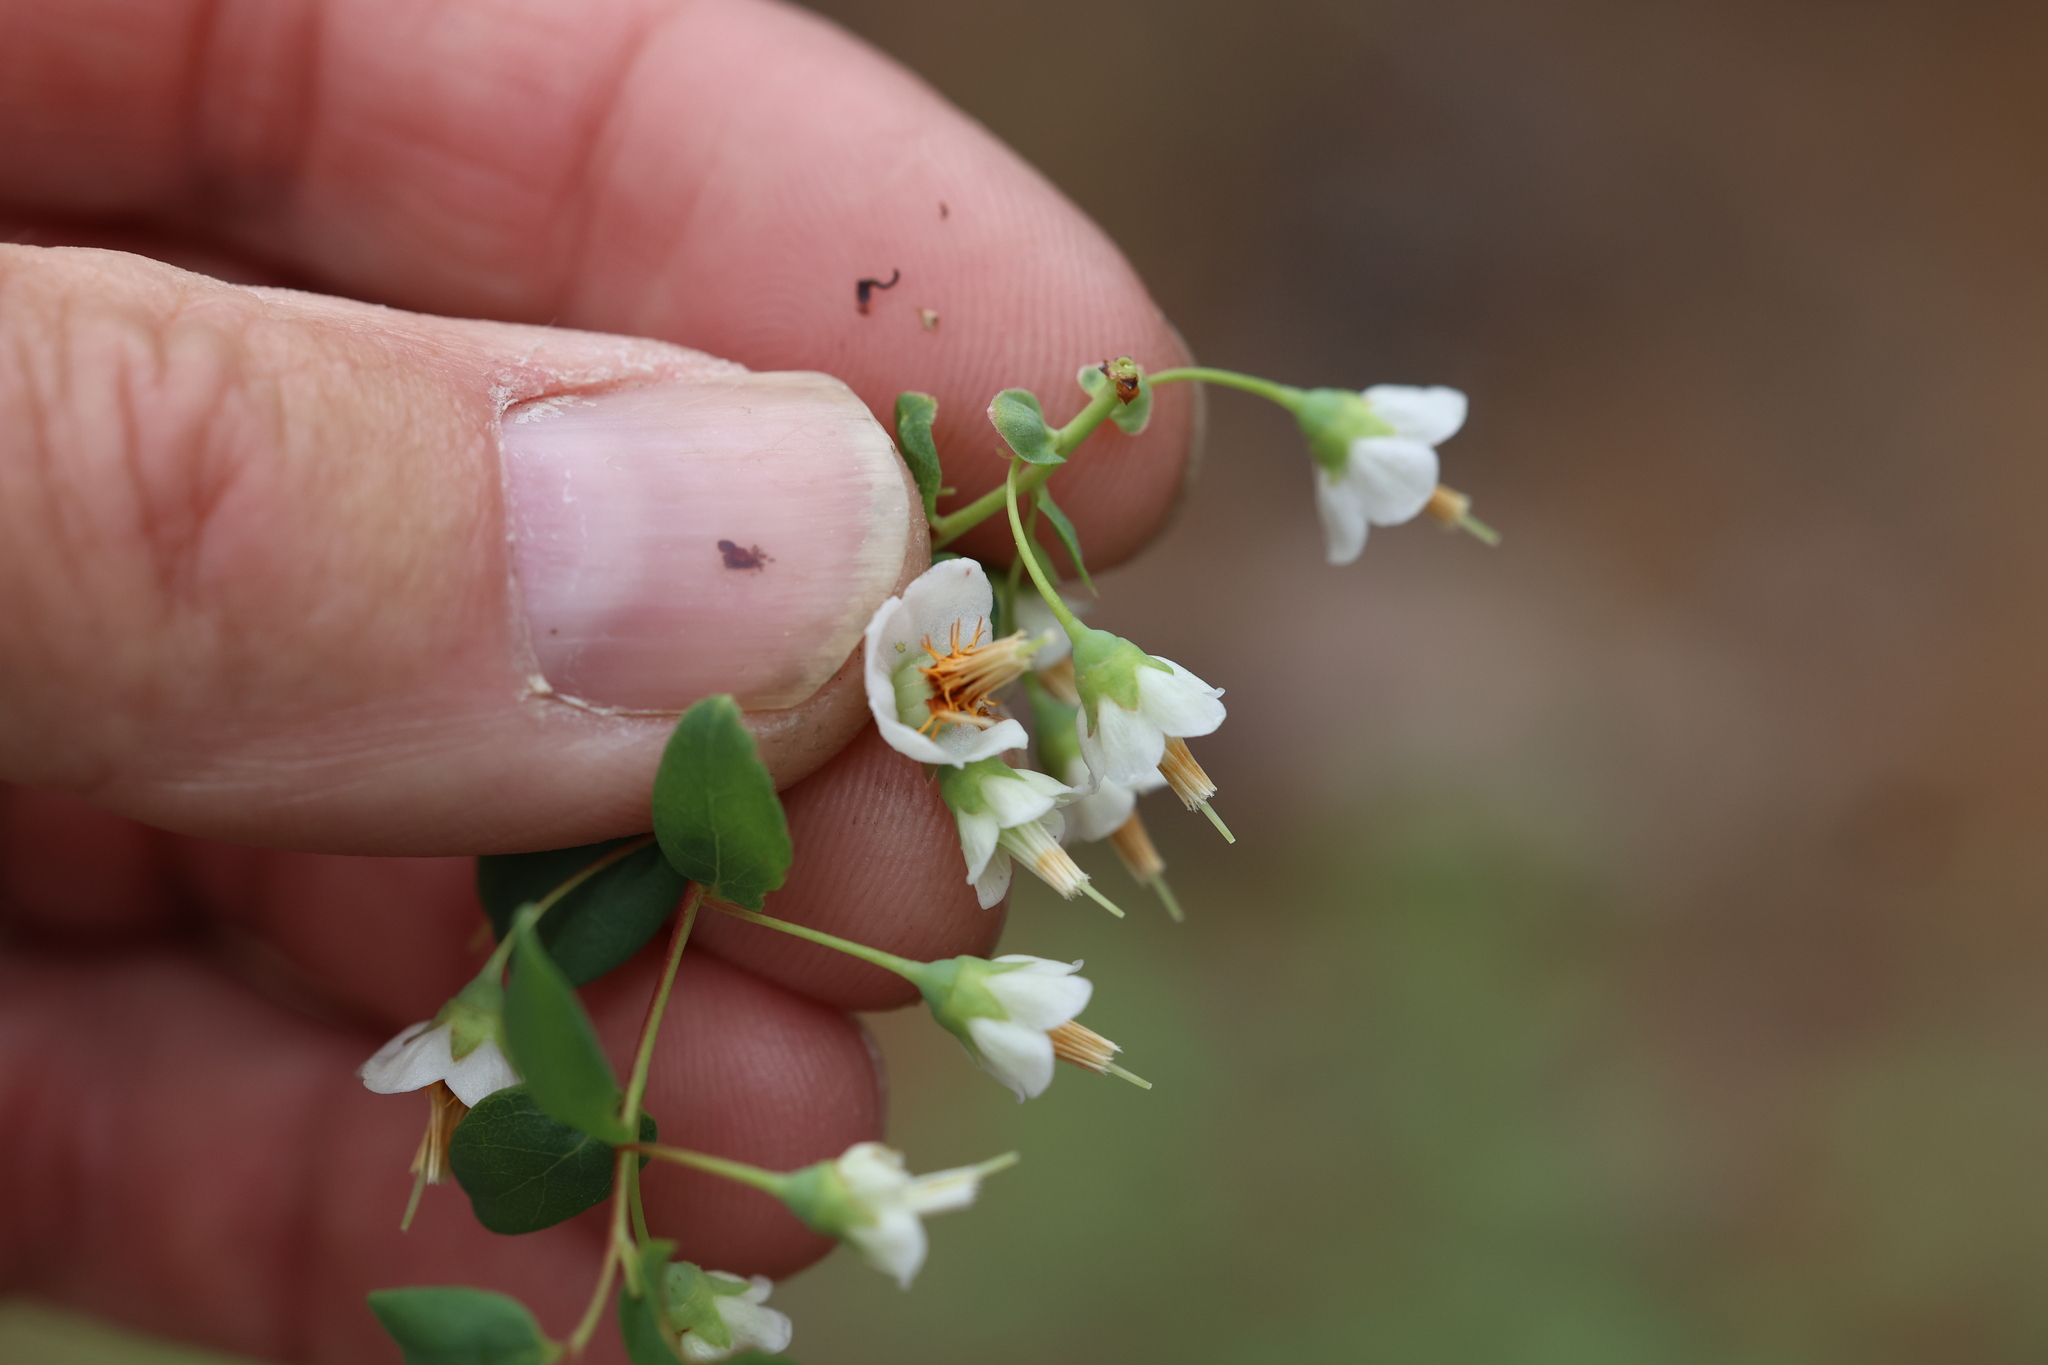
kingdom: Plantae
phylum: Tracheophyta
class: Magnoliopsida
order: Ericales
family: Ericaceae
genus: Vaccinium
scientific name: Vaccinium stamineum
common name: Deerberry
